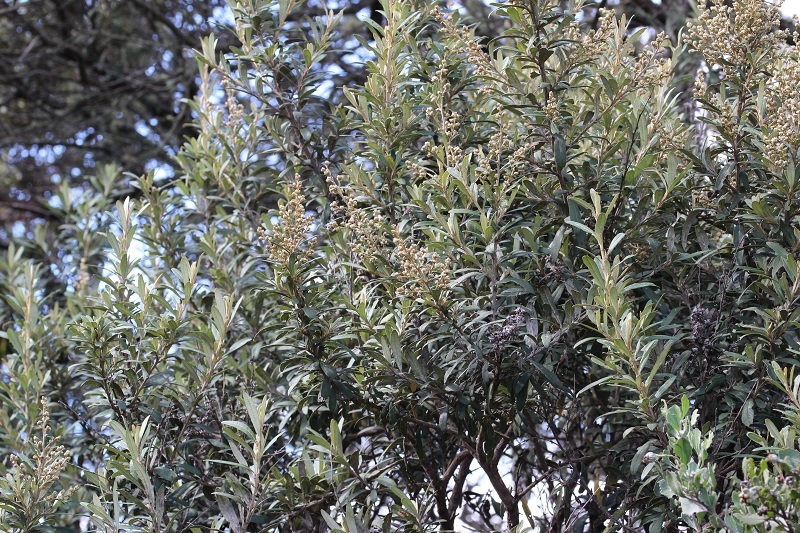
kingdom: Plantae
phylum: Tracheophyta
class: Magnoliopsida
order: Asterales
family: Asteraceae
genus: Tarchonanthus
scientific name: Tarchonanthus littoralis
